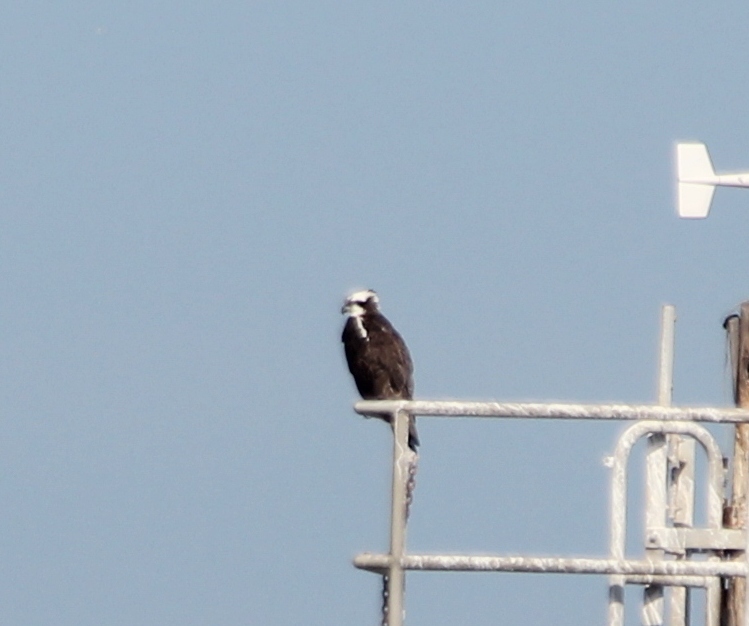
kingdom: Animalia
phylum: Chordata
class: Aves
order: Accipitriformes
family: Pandionidae
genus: Pandion
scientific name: Pandion haliaetus
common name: Osprey
